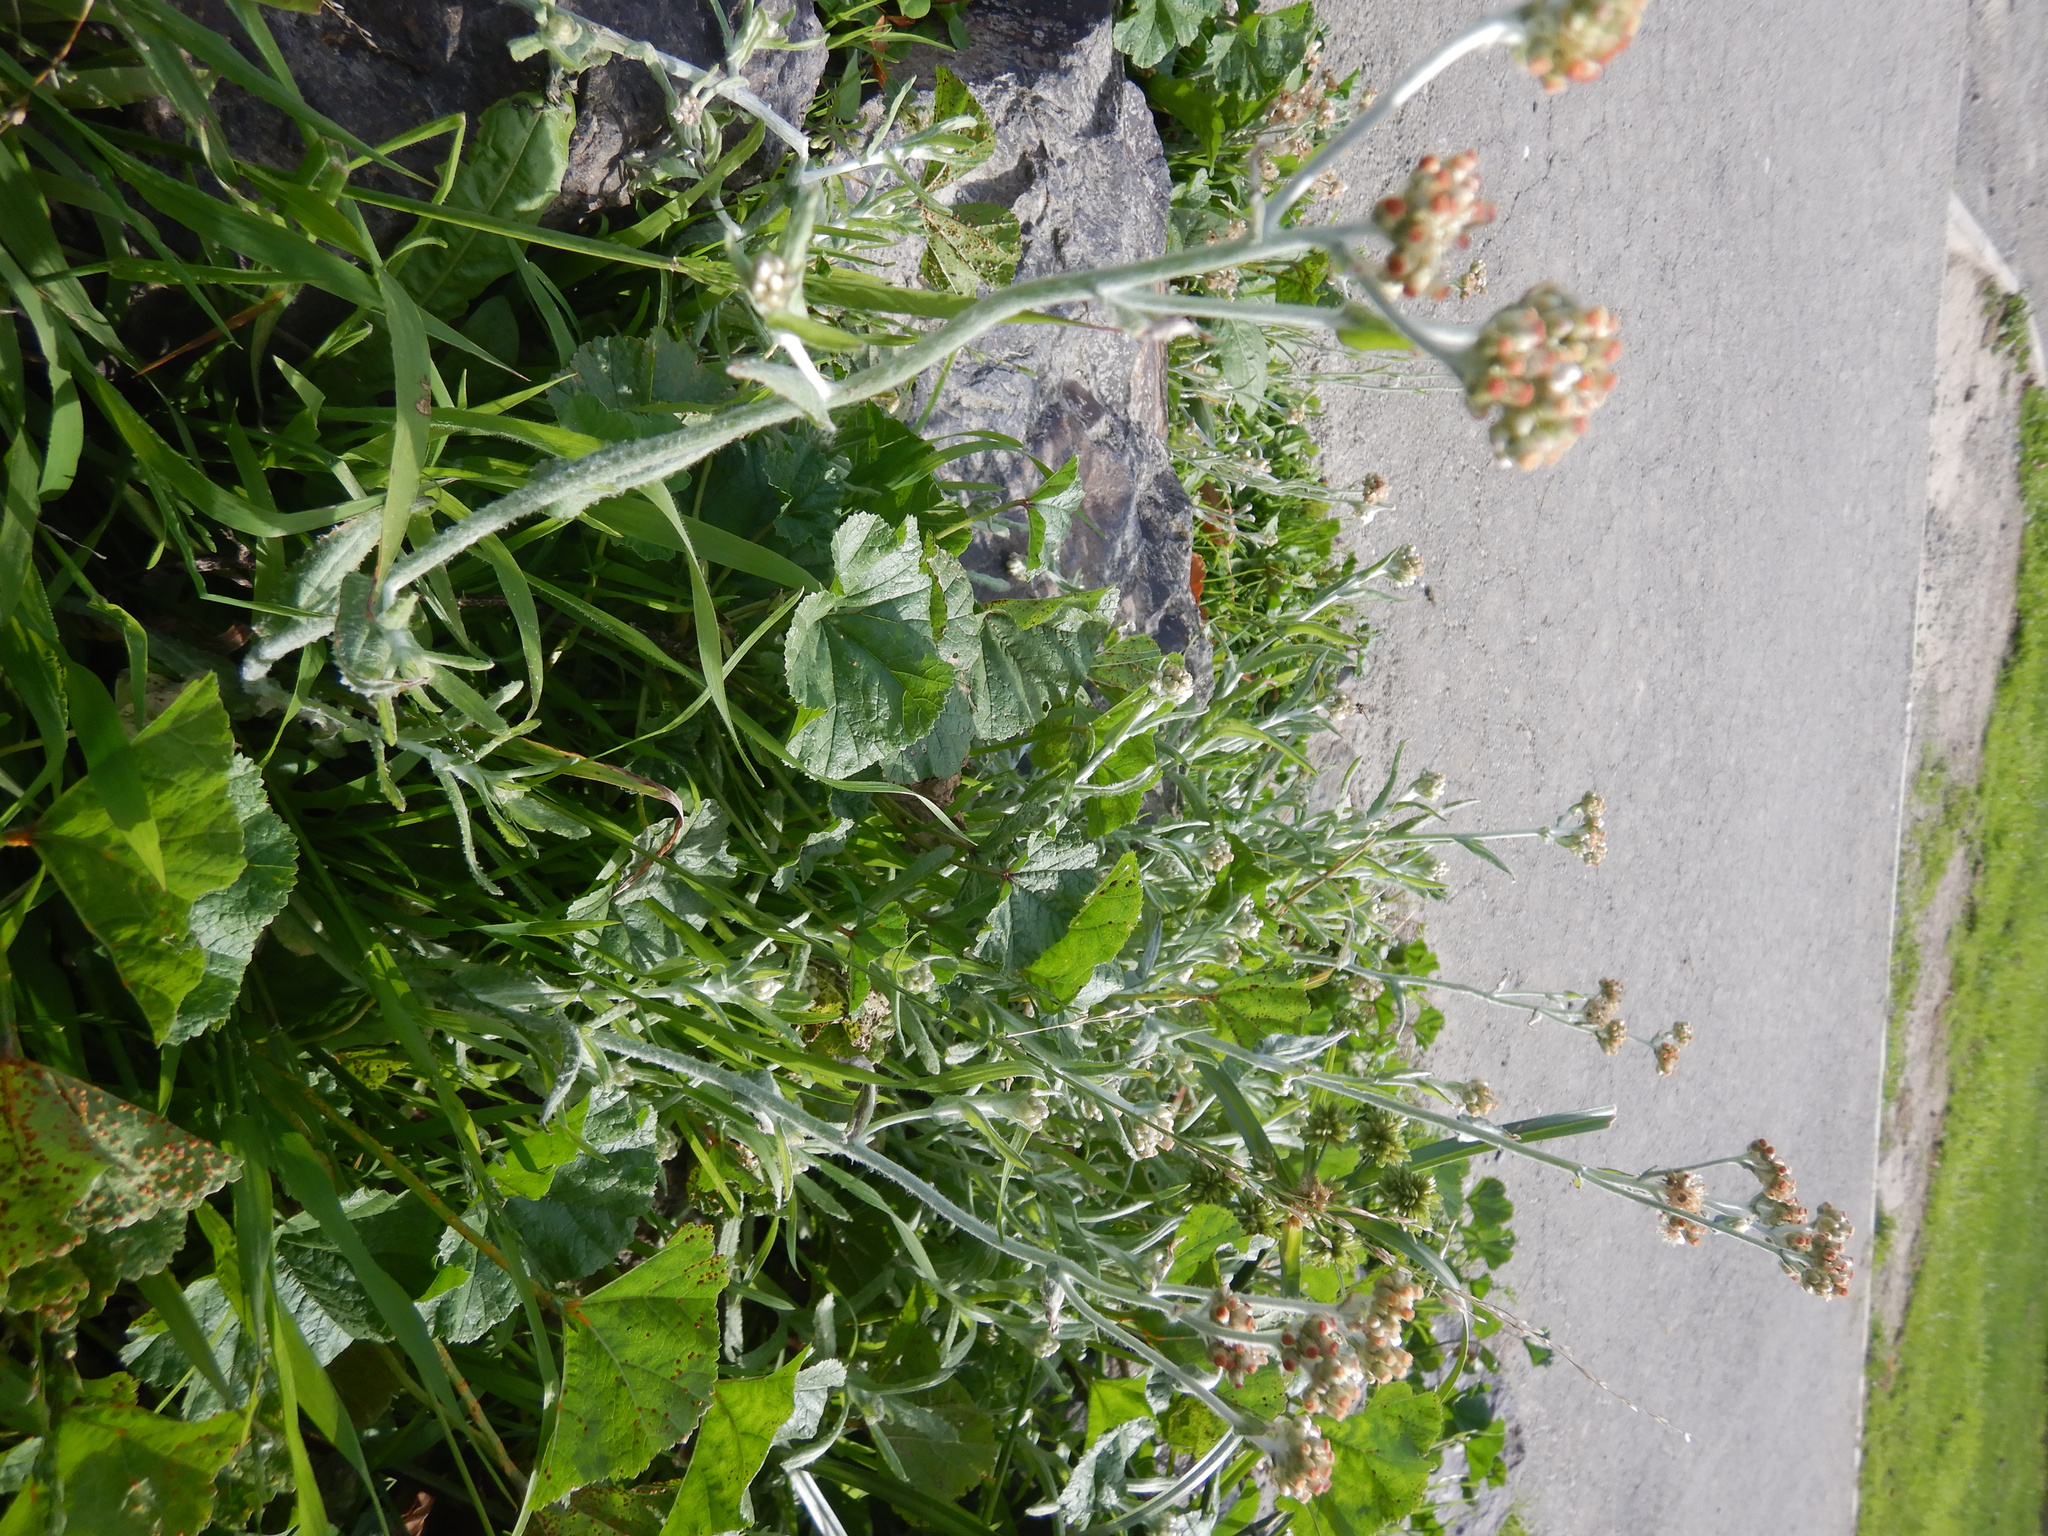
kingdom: Plantae
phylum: Tracheophyta
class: Magnoliopsida
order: Asterales
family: Asteraceae
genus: Helichrysum
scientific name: Helichrysum luteoalbum
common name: Daisy
